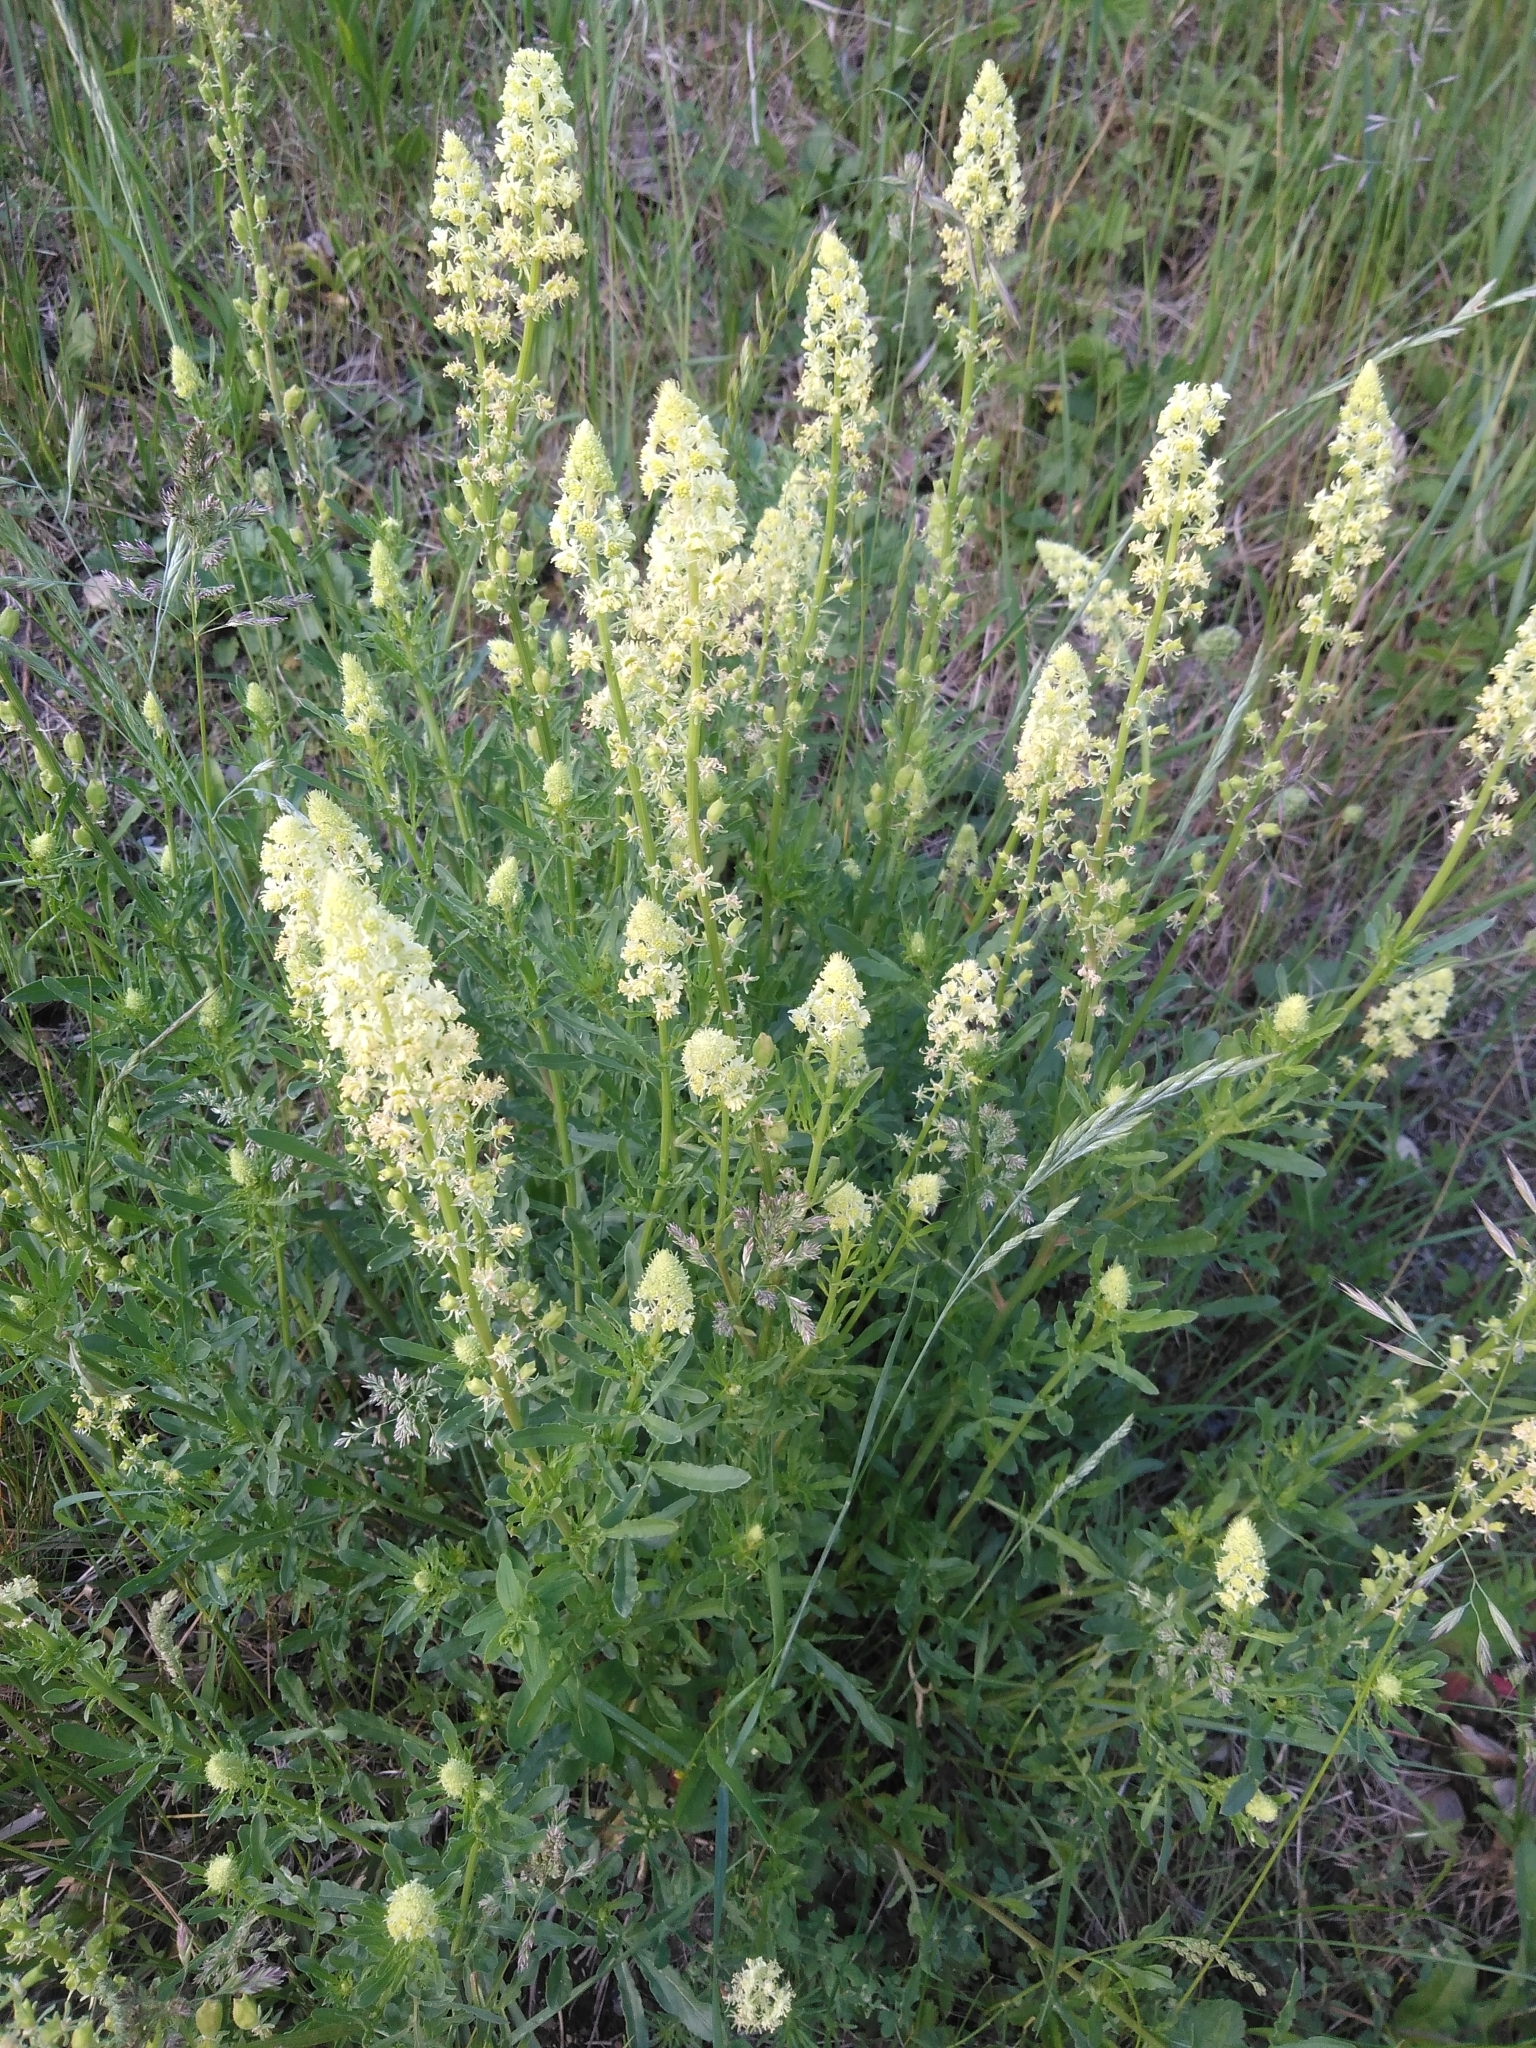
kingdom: Plantae
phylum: Tracheophyta
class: Magnoliopsida
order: Brassicales
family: Resedaceae
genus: Reseda
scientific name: Reseda lutea
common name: Wild mignonette
